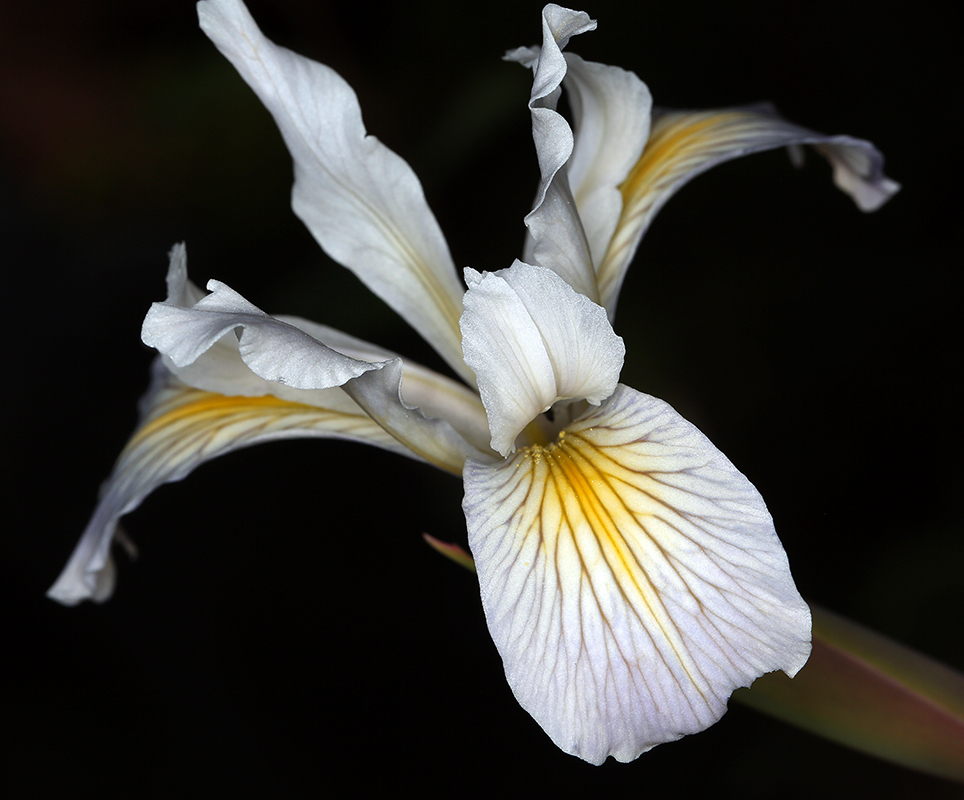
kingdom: Plantae
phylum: Tracheophyta
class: Liliopsida
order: Asparagales
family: Iridaceae
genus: Iris
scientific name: Iris thompsonii
